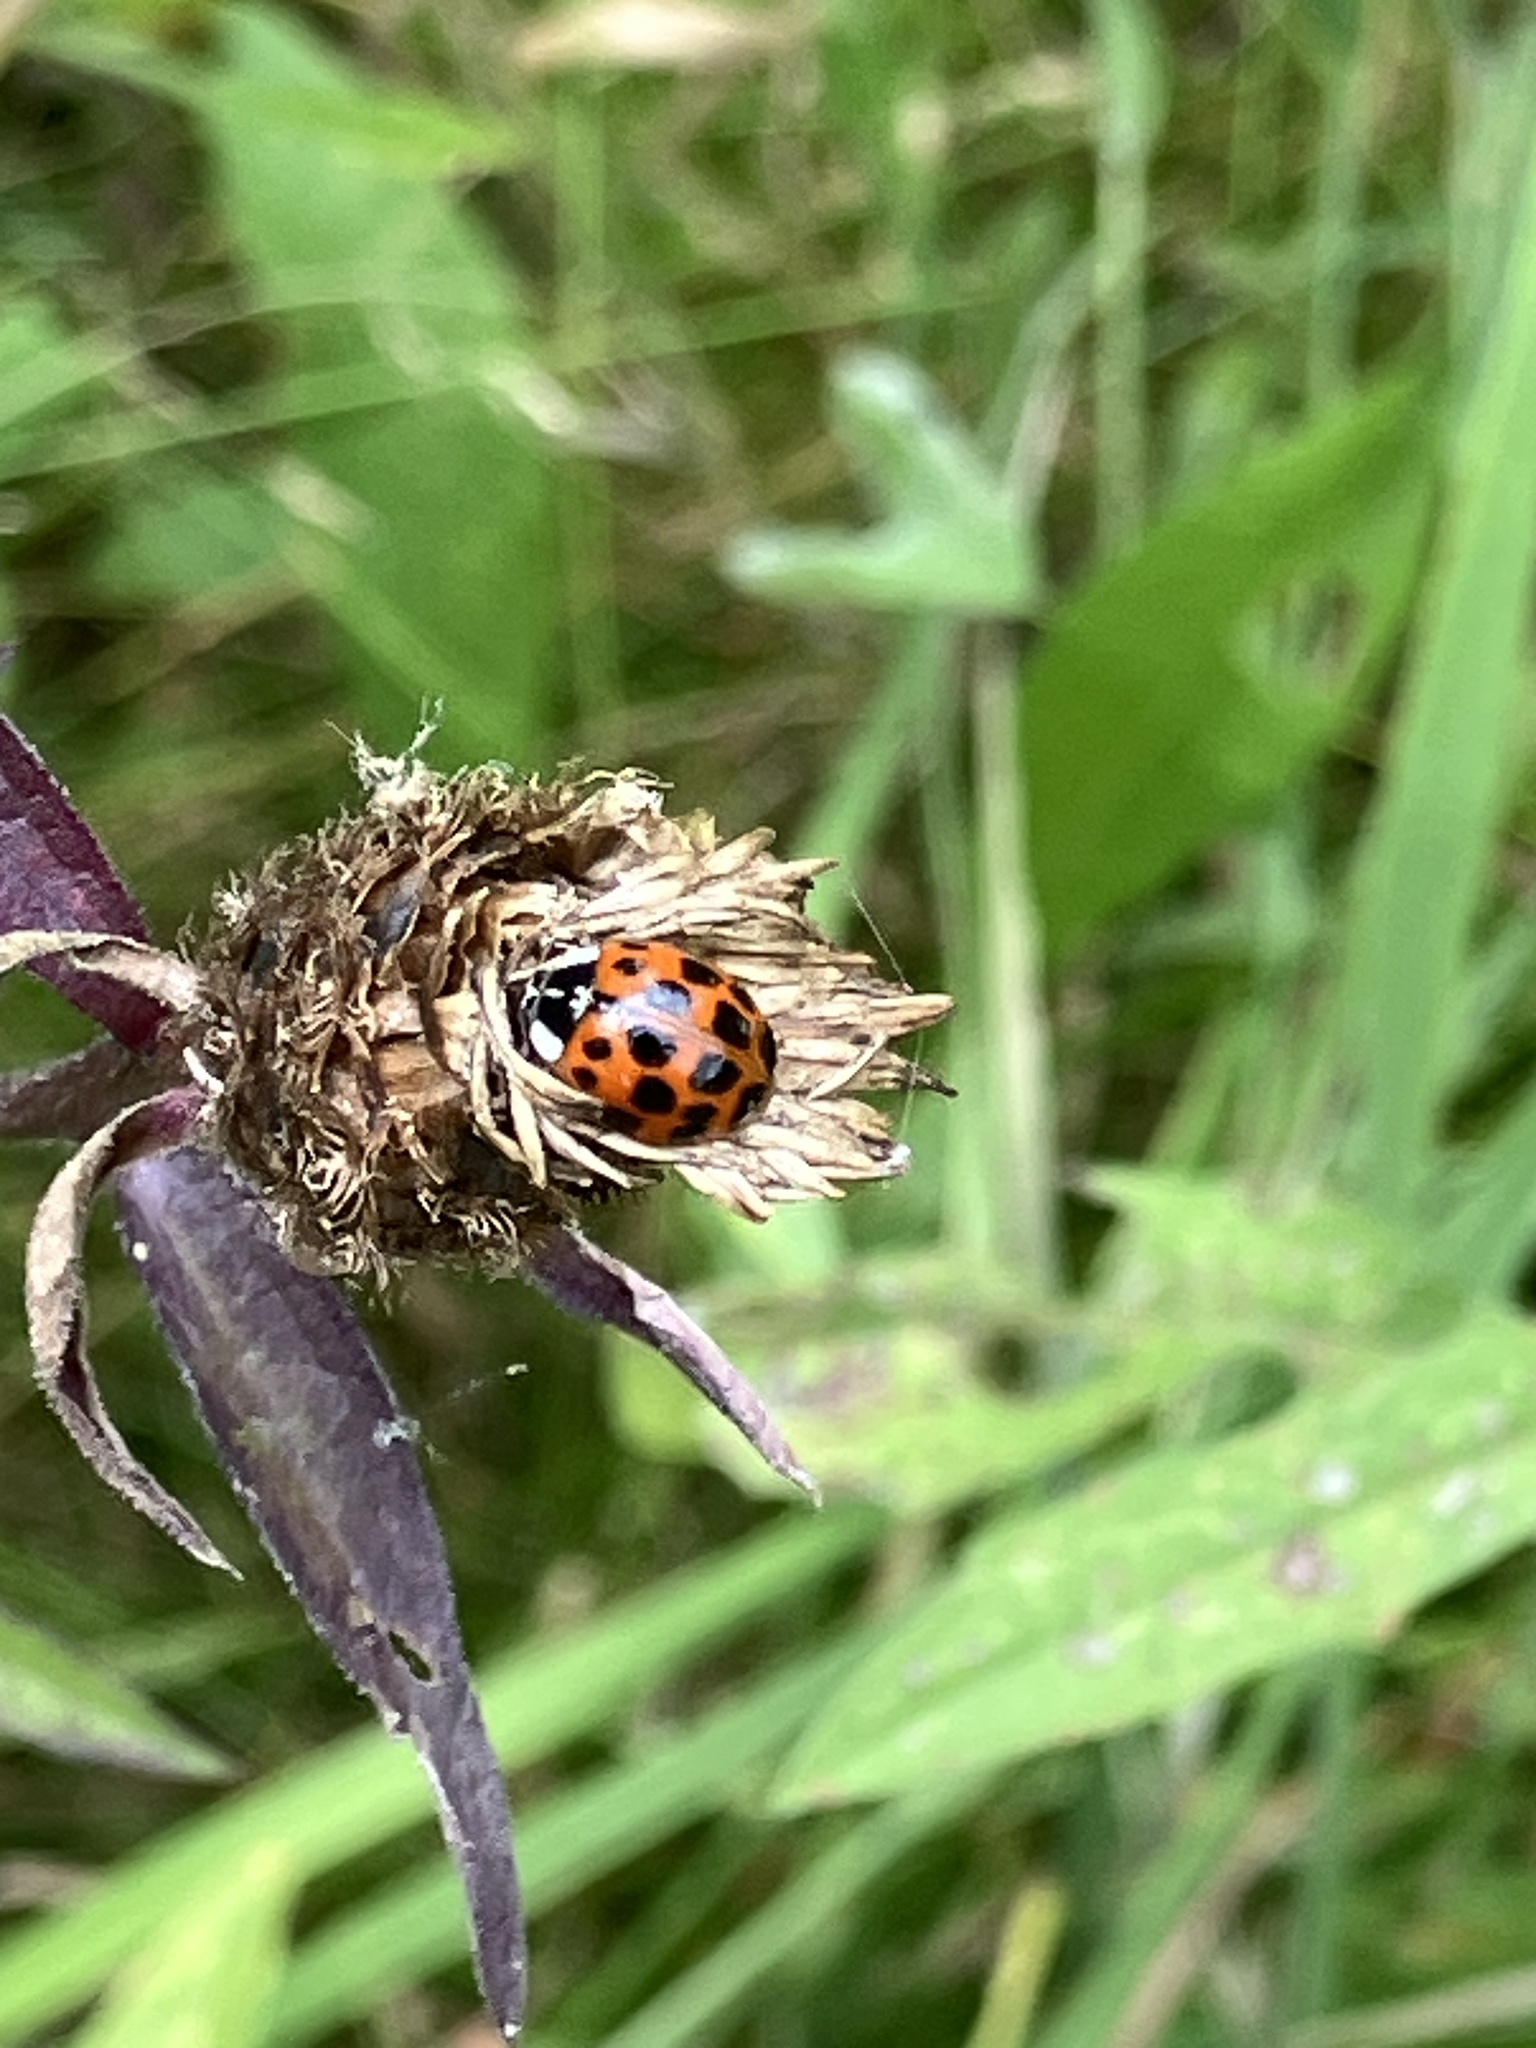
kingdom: Animalia
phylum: Arthropoda
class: Insecta
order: Coleoptera
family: Coccinellidae
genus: Harmonia
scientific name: Harmonia axyridis
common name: Harlequin ladybird
